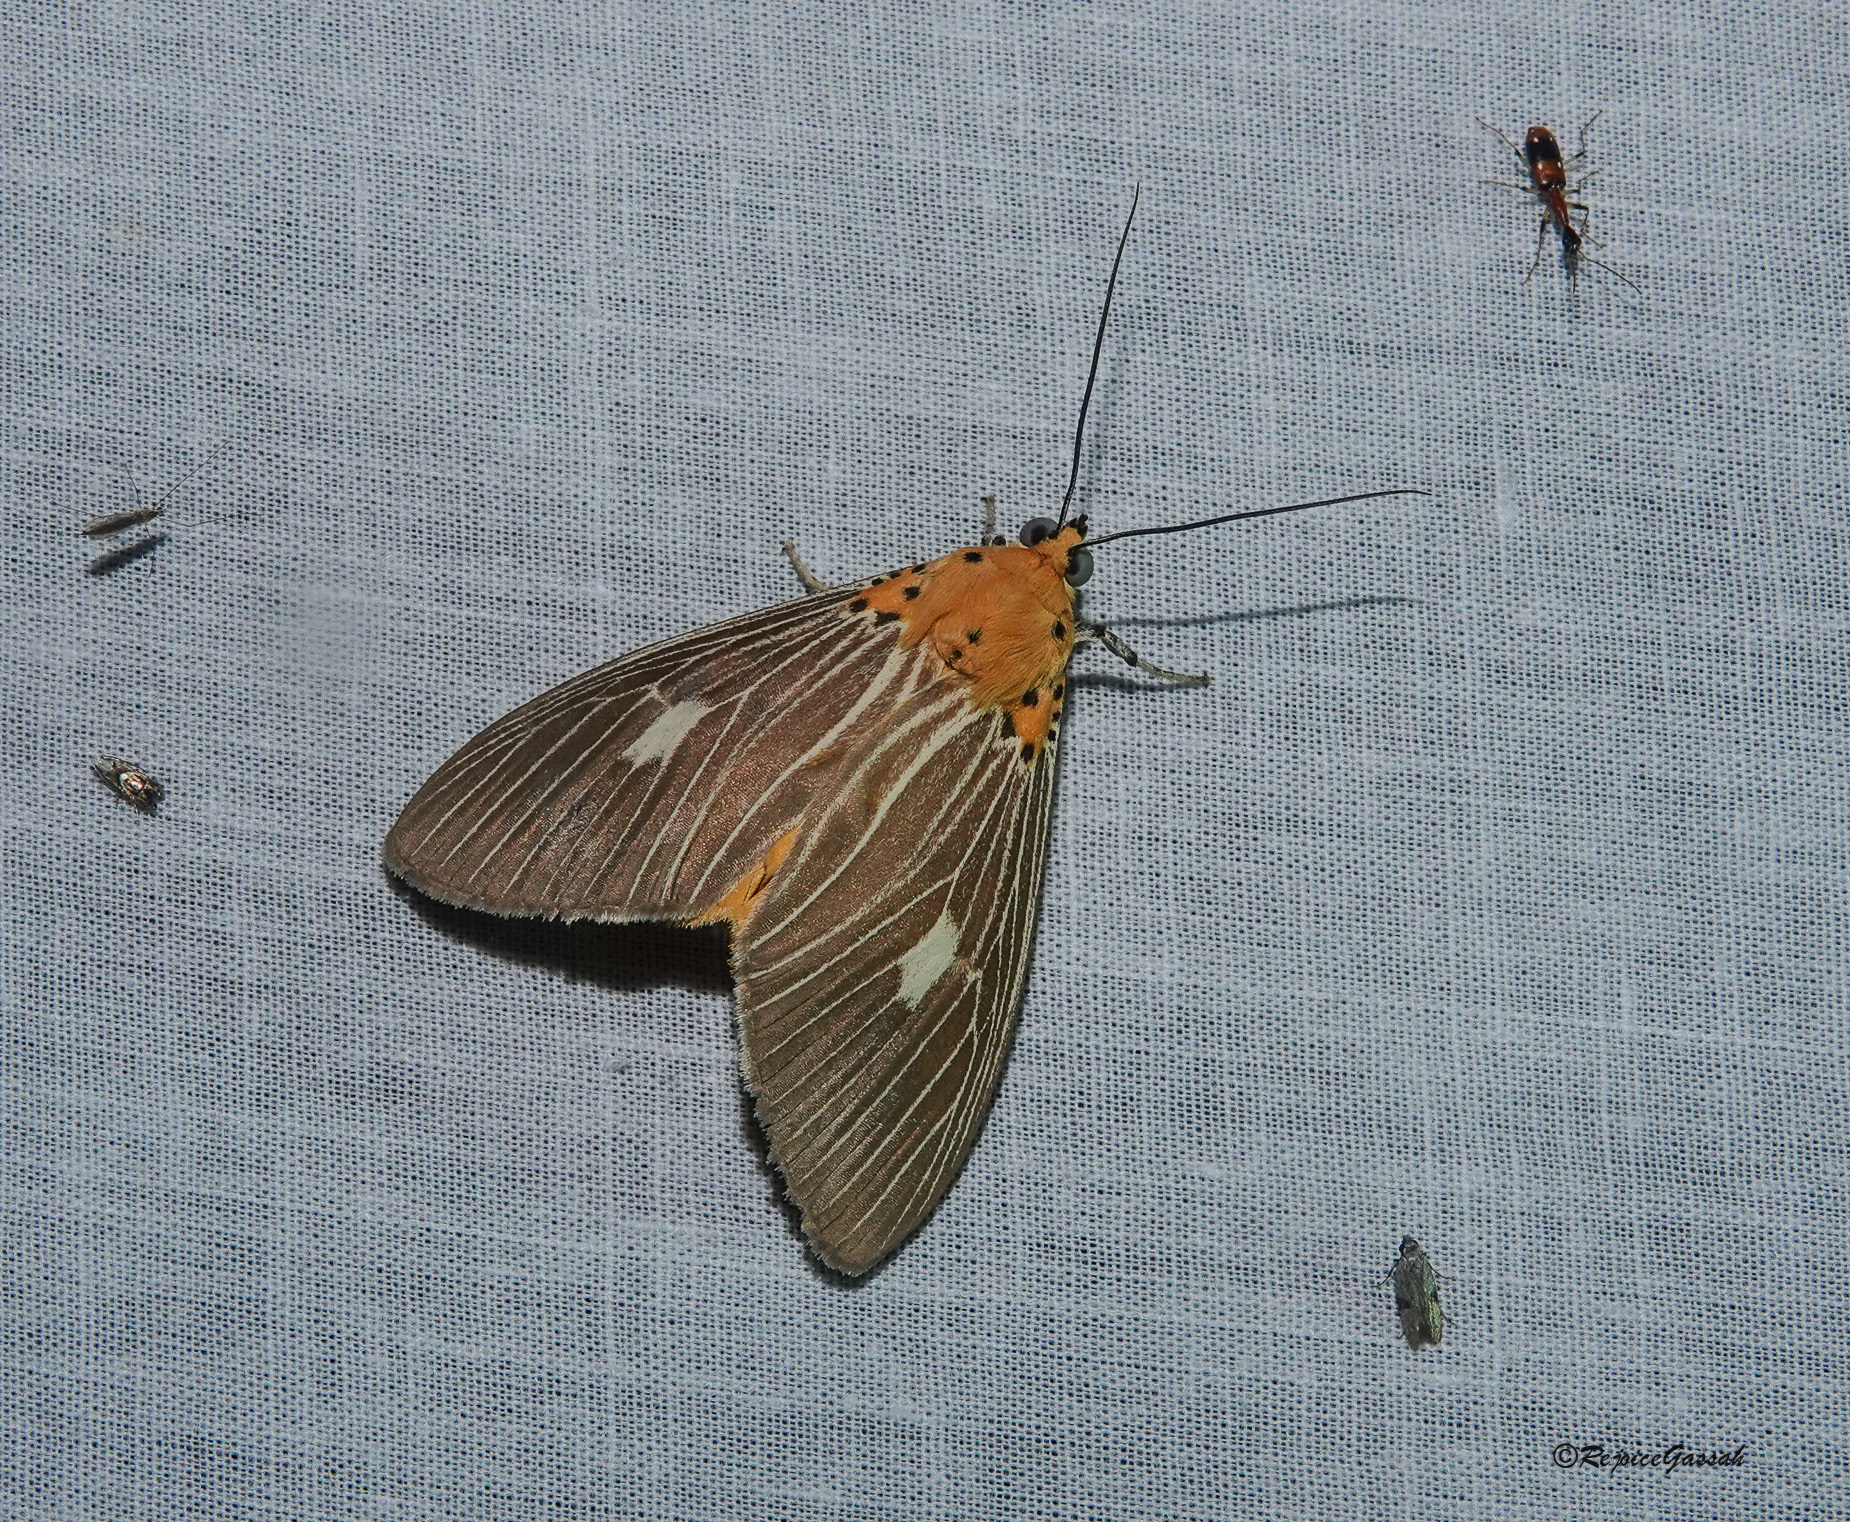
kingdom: Animalia
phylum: Arthropoda
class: Insecta
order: Lepidoptera
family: Erebidae
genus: Asota
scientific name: Asota plaginota
